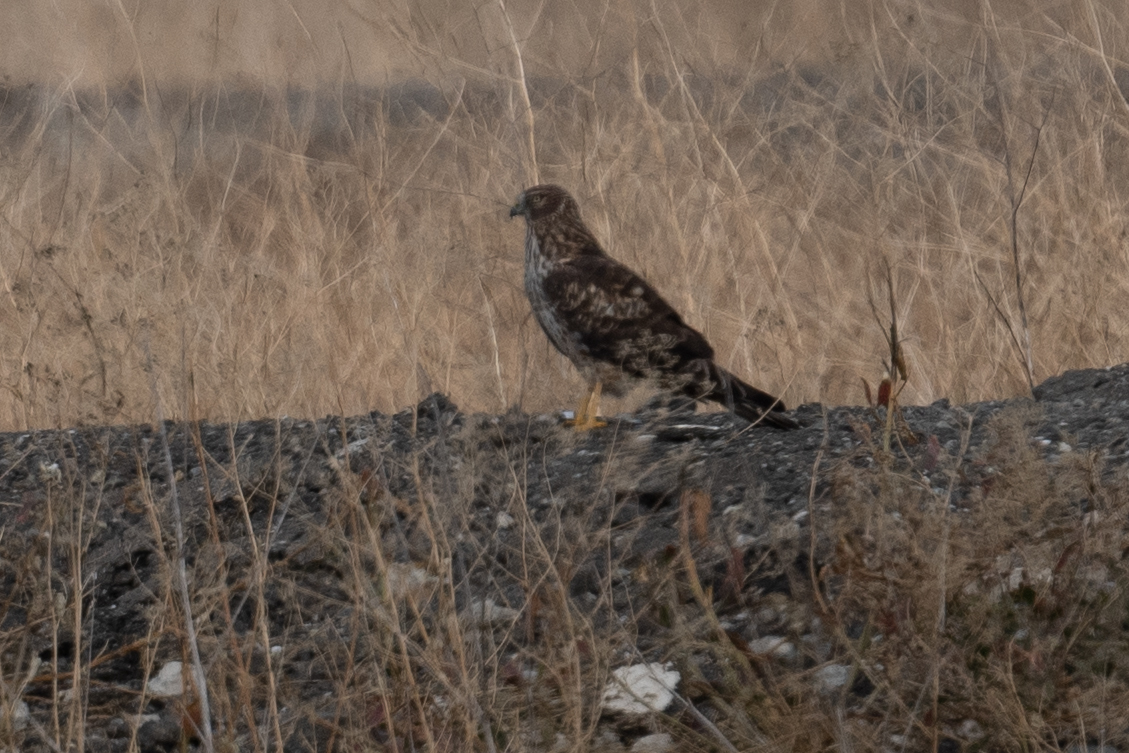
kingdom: Animalia
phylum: Chordata
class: Aves
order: Accipitriformes
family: Accipitridae
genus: Circus
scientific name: Circus cyaneus
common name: Hen harrier
